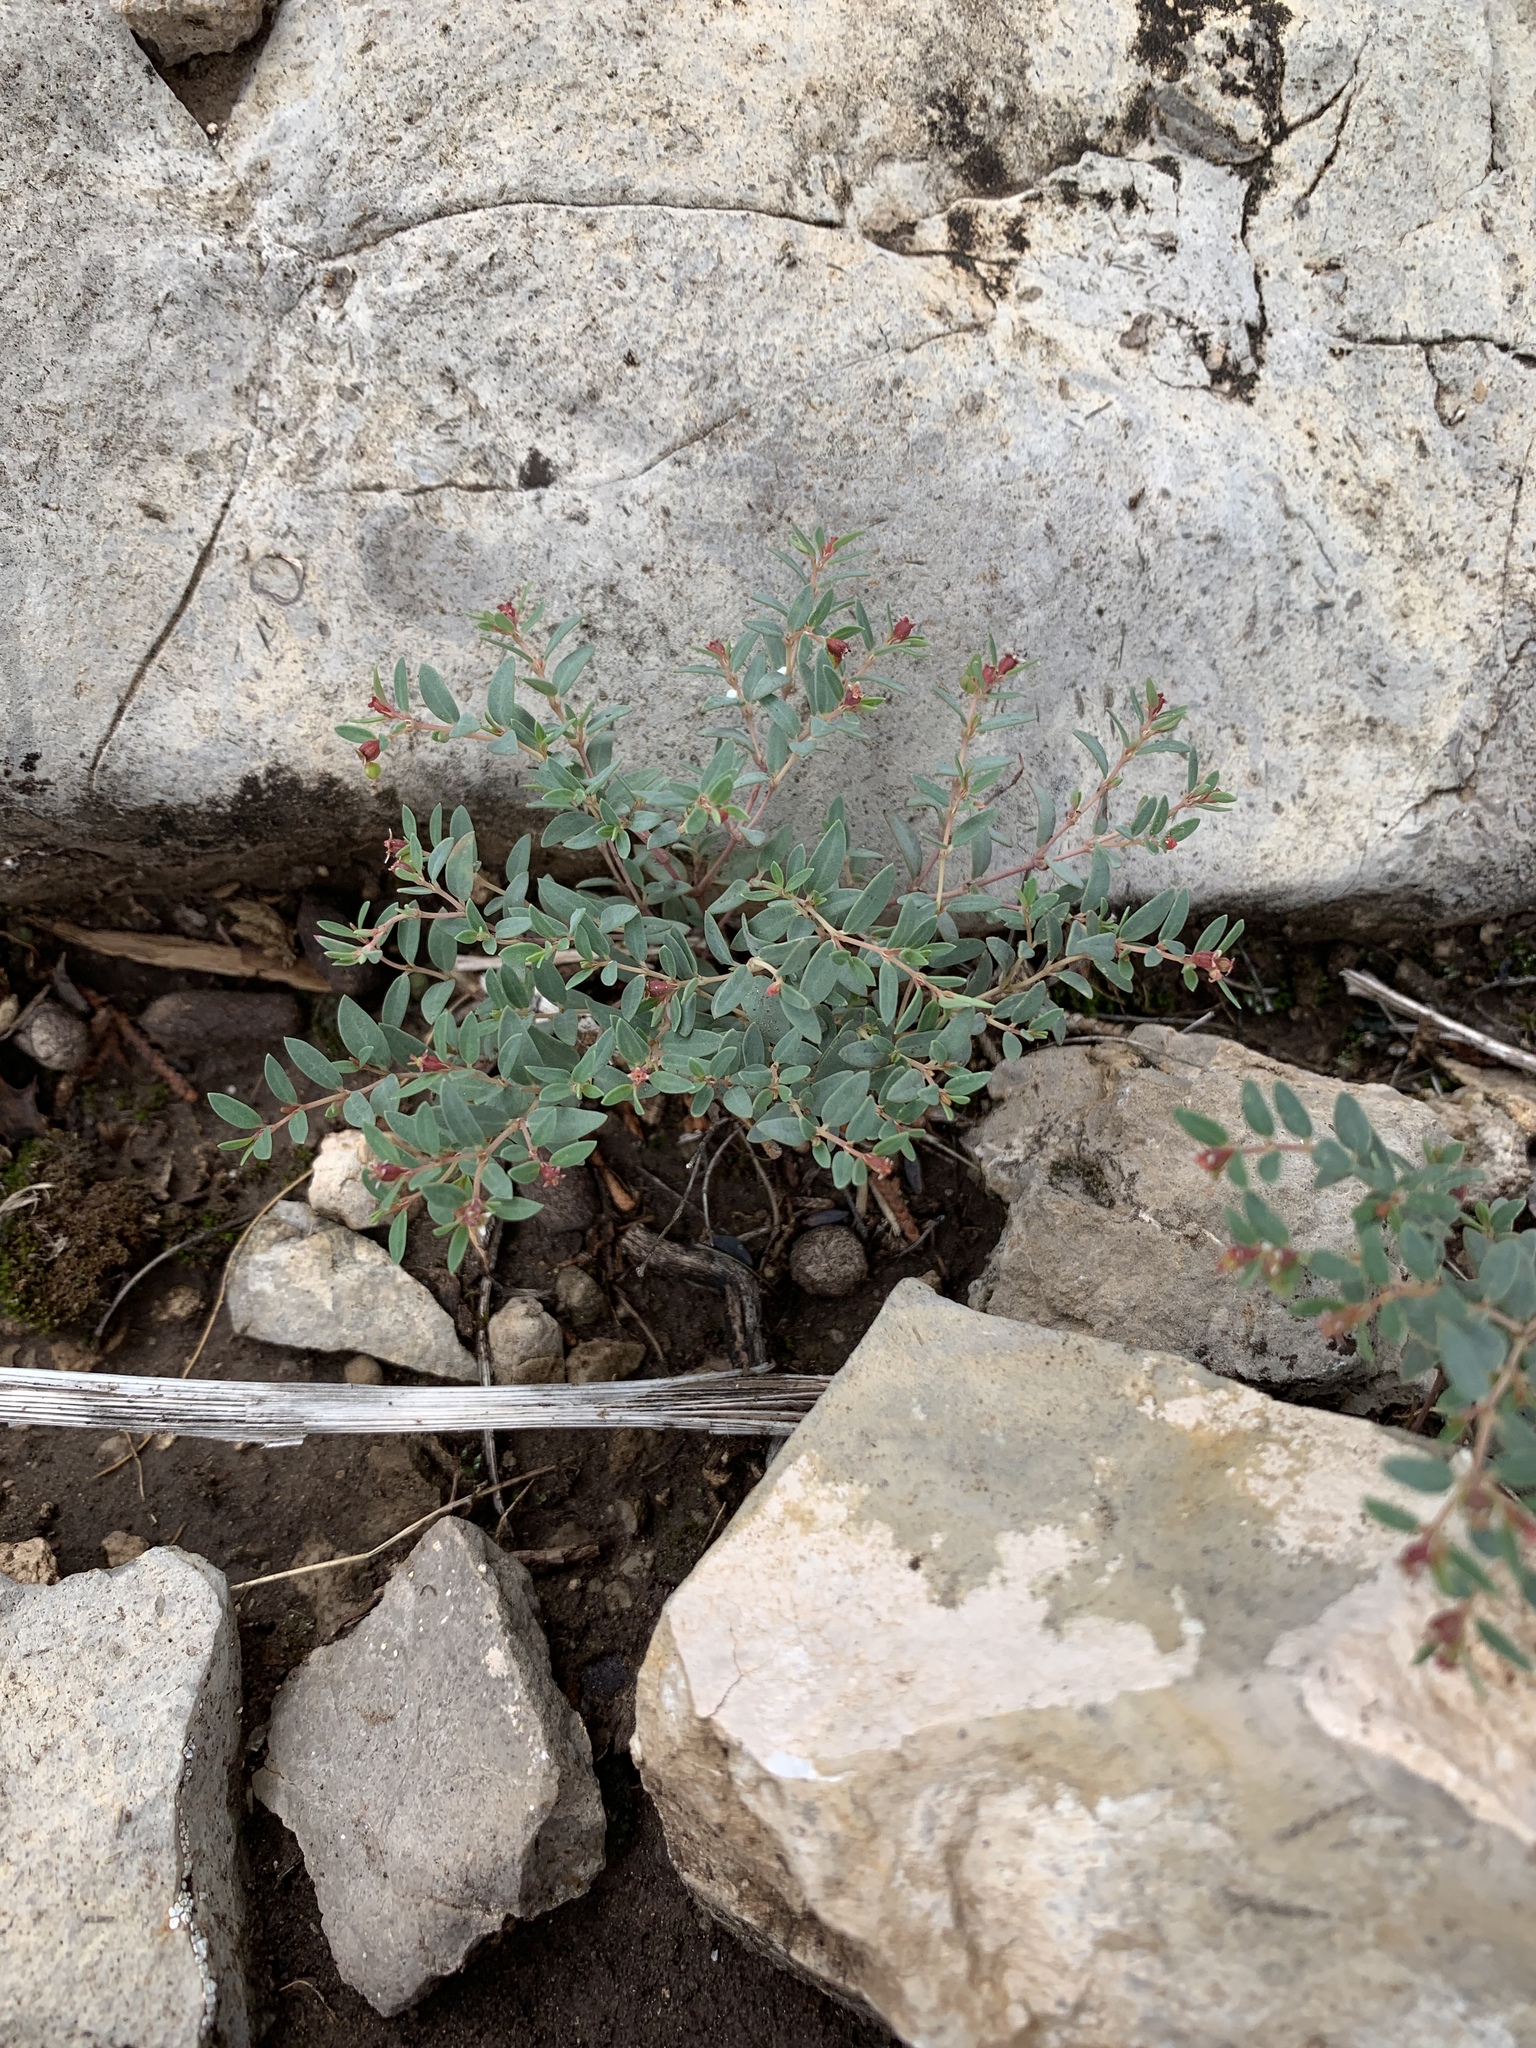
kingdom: Plantae
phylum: Tracheophyta
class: Magnoliopsida
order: Malpighiales
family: Euphorbiaceae
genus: Euphorbia
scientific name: Euphorbia chaetocalyx
